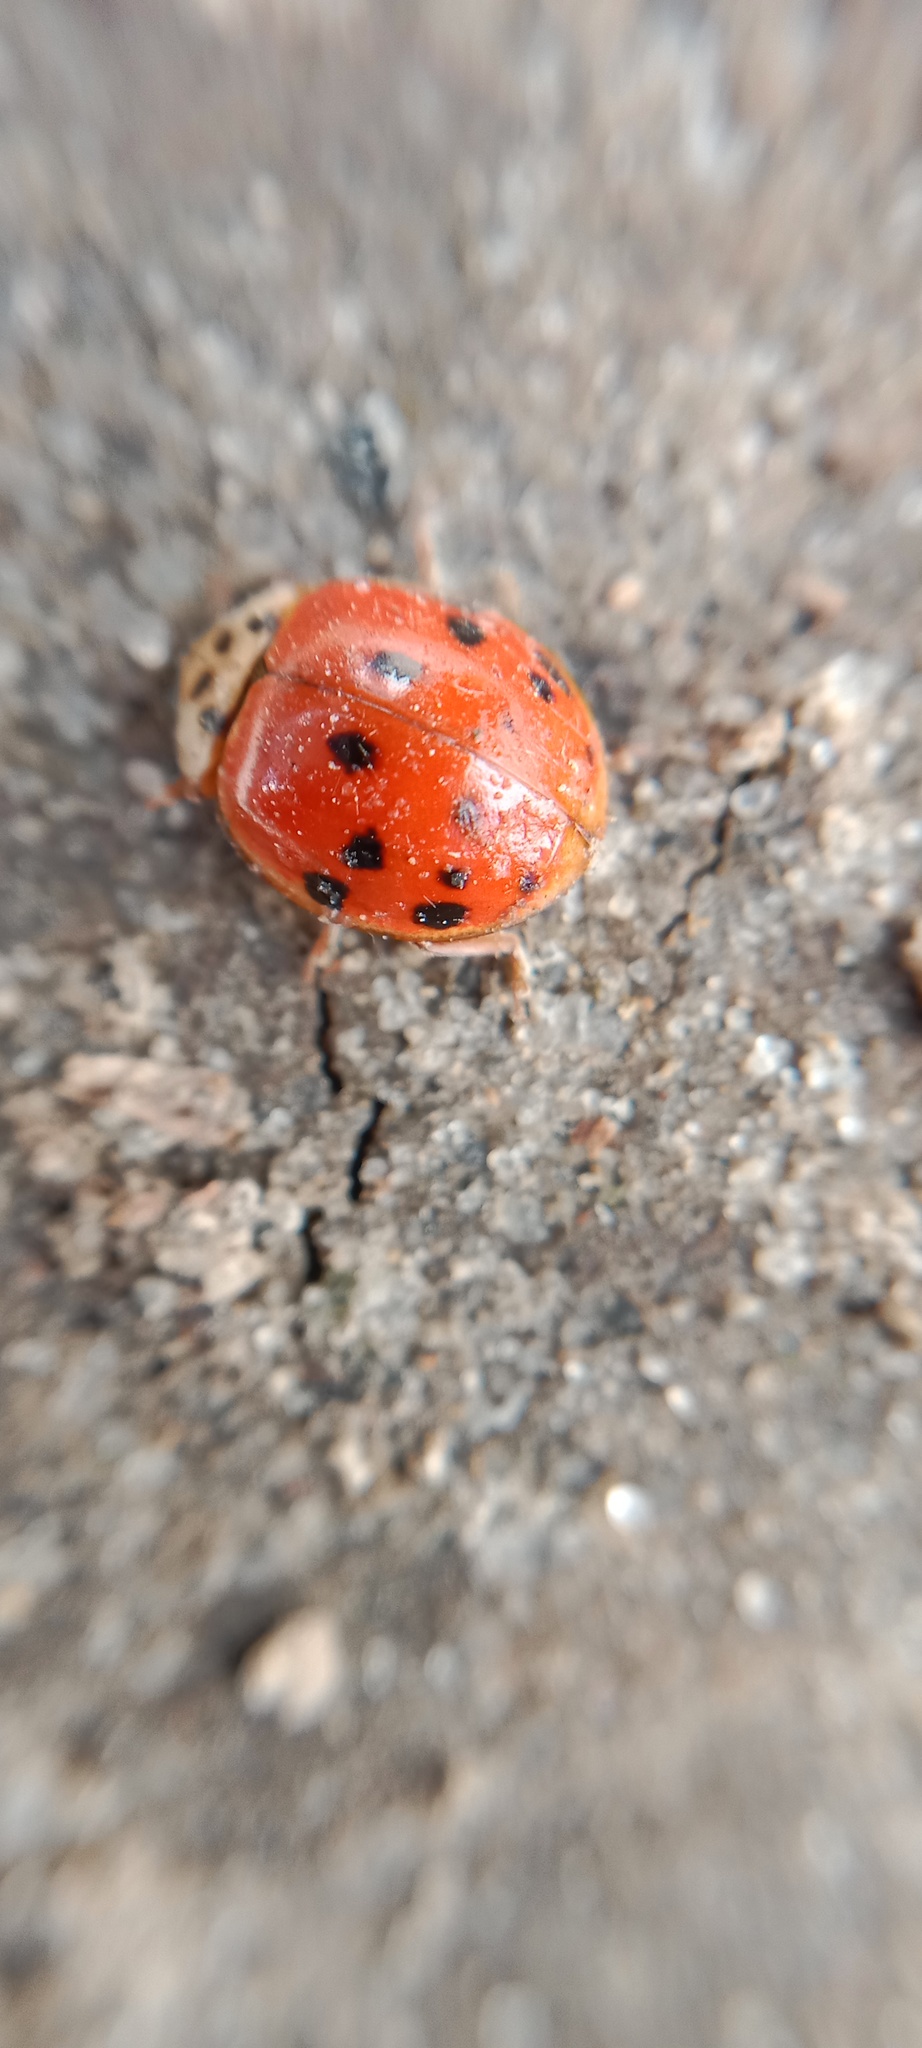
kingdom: Animalia
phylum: Arthropoda
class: Insecta
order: Coleoptera
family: Coccinellidae
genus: Harmonia
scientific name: Harmonia axyridis
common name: Harlequin ladybird
